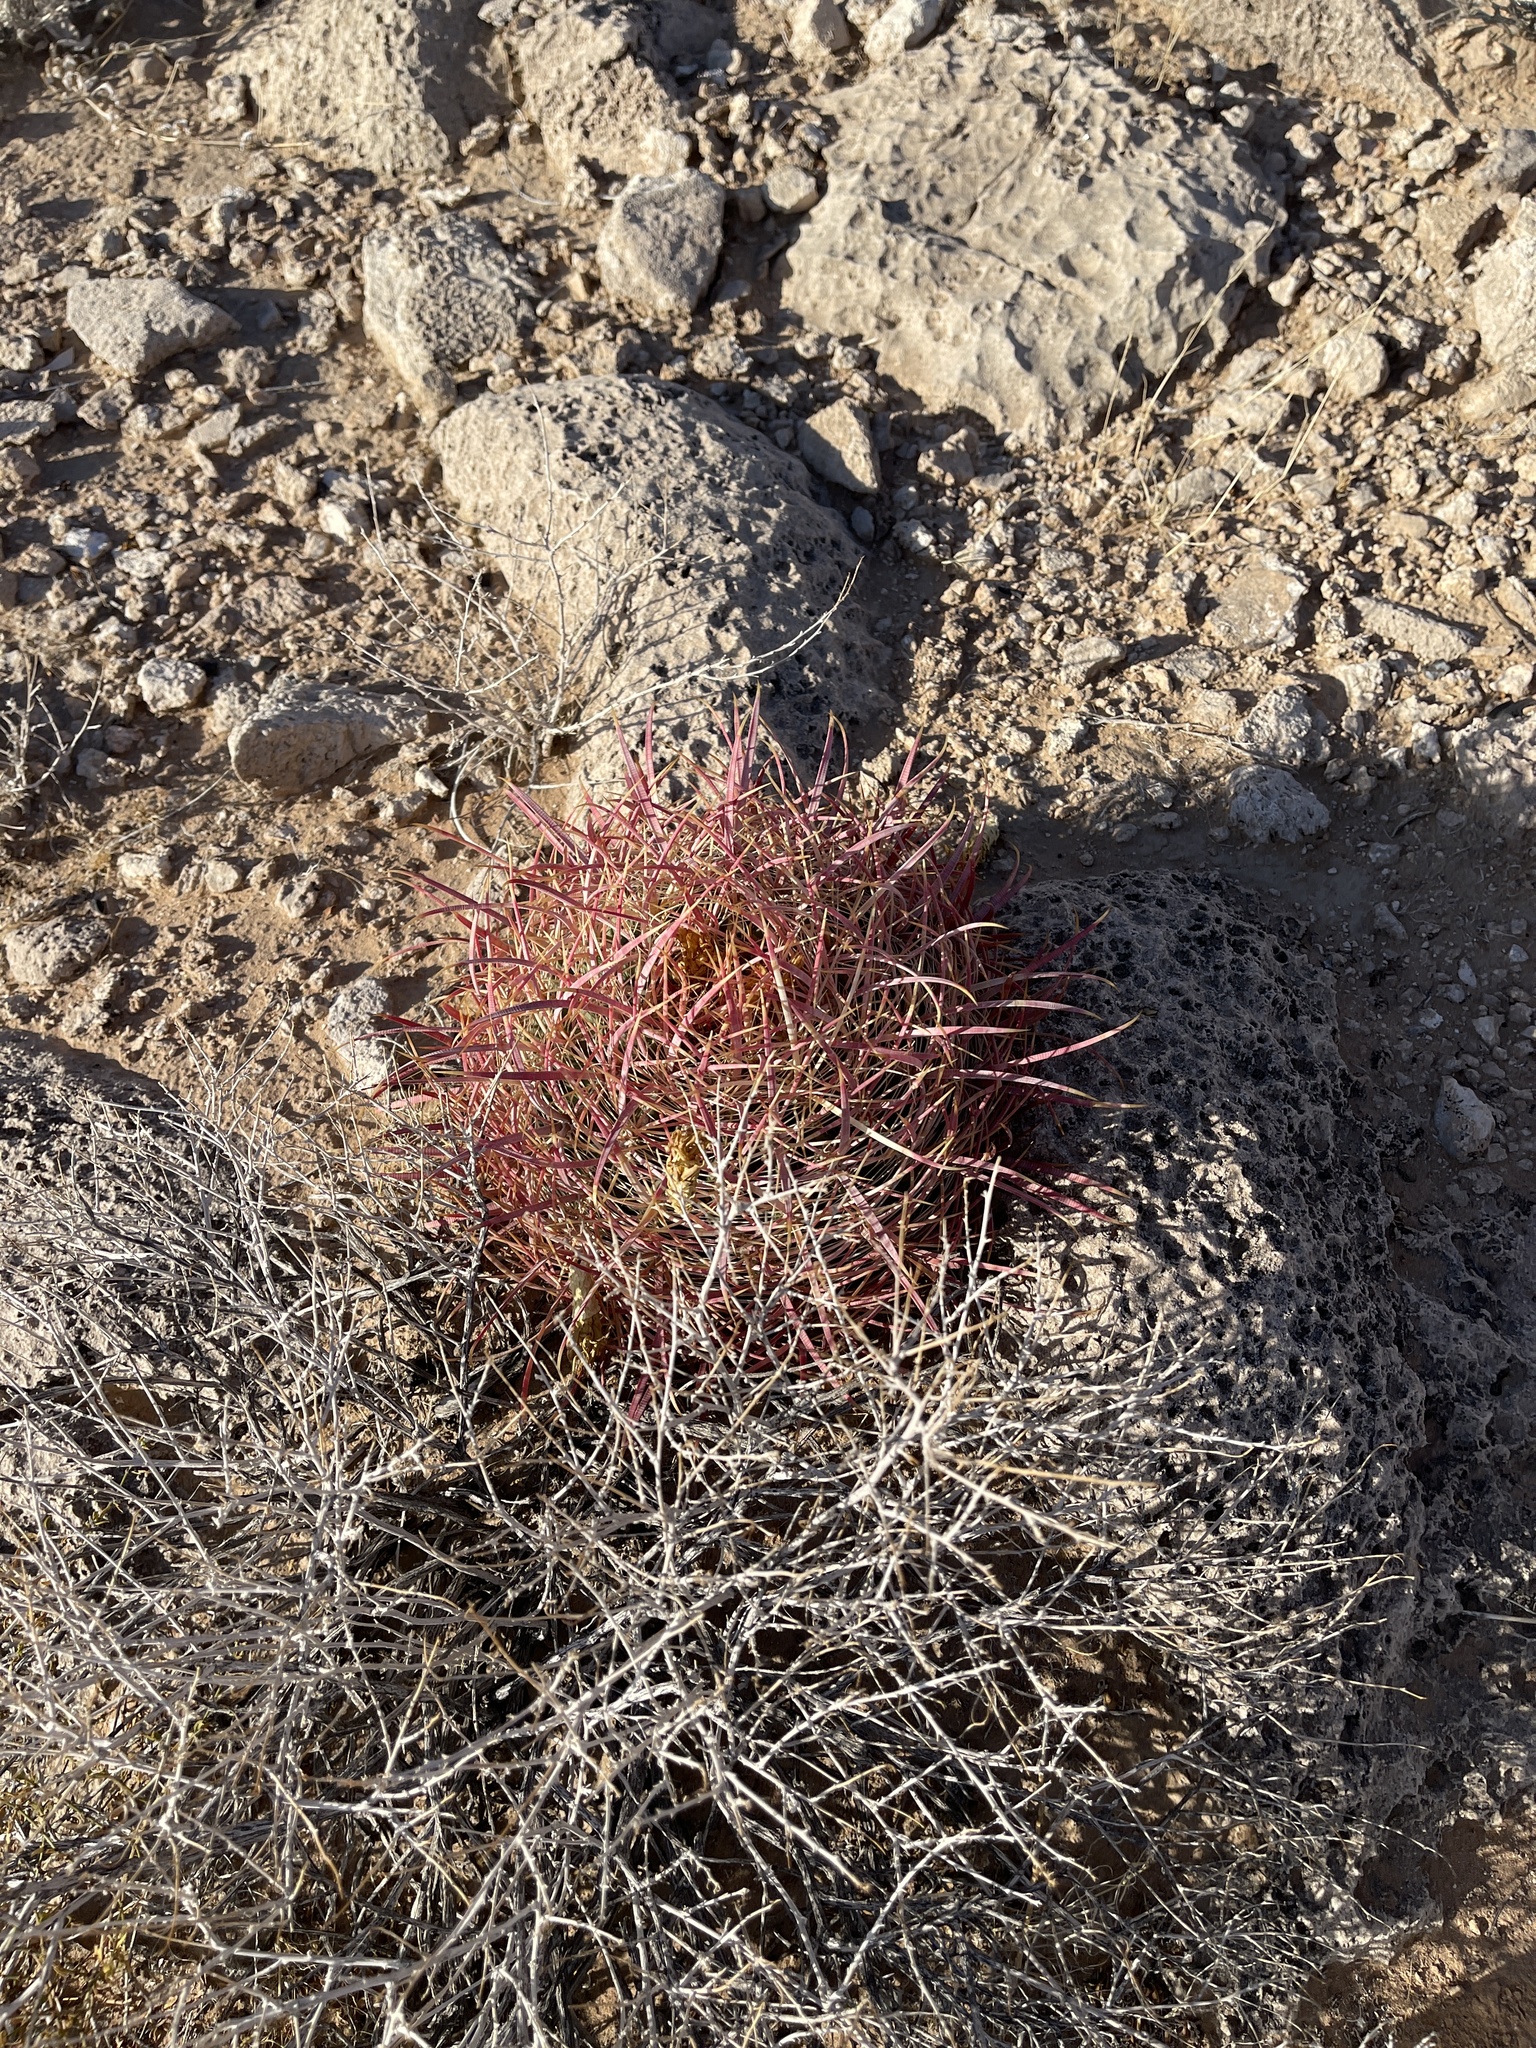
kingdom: Plantae
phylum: Tracheophyta
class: Magnoliopsida
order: Caryophyllales
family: Cactaceae
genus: Ferocactus
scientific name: Ferocactus cylindraceus
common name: California barrel cactus
